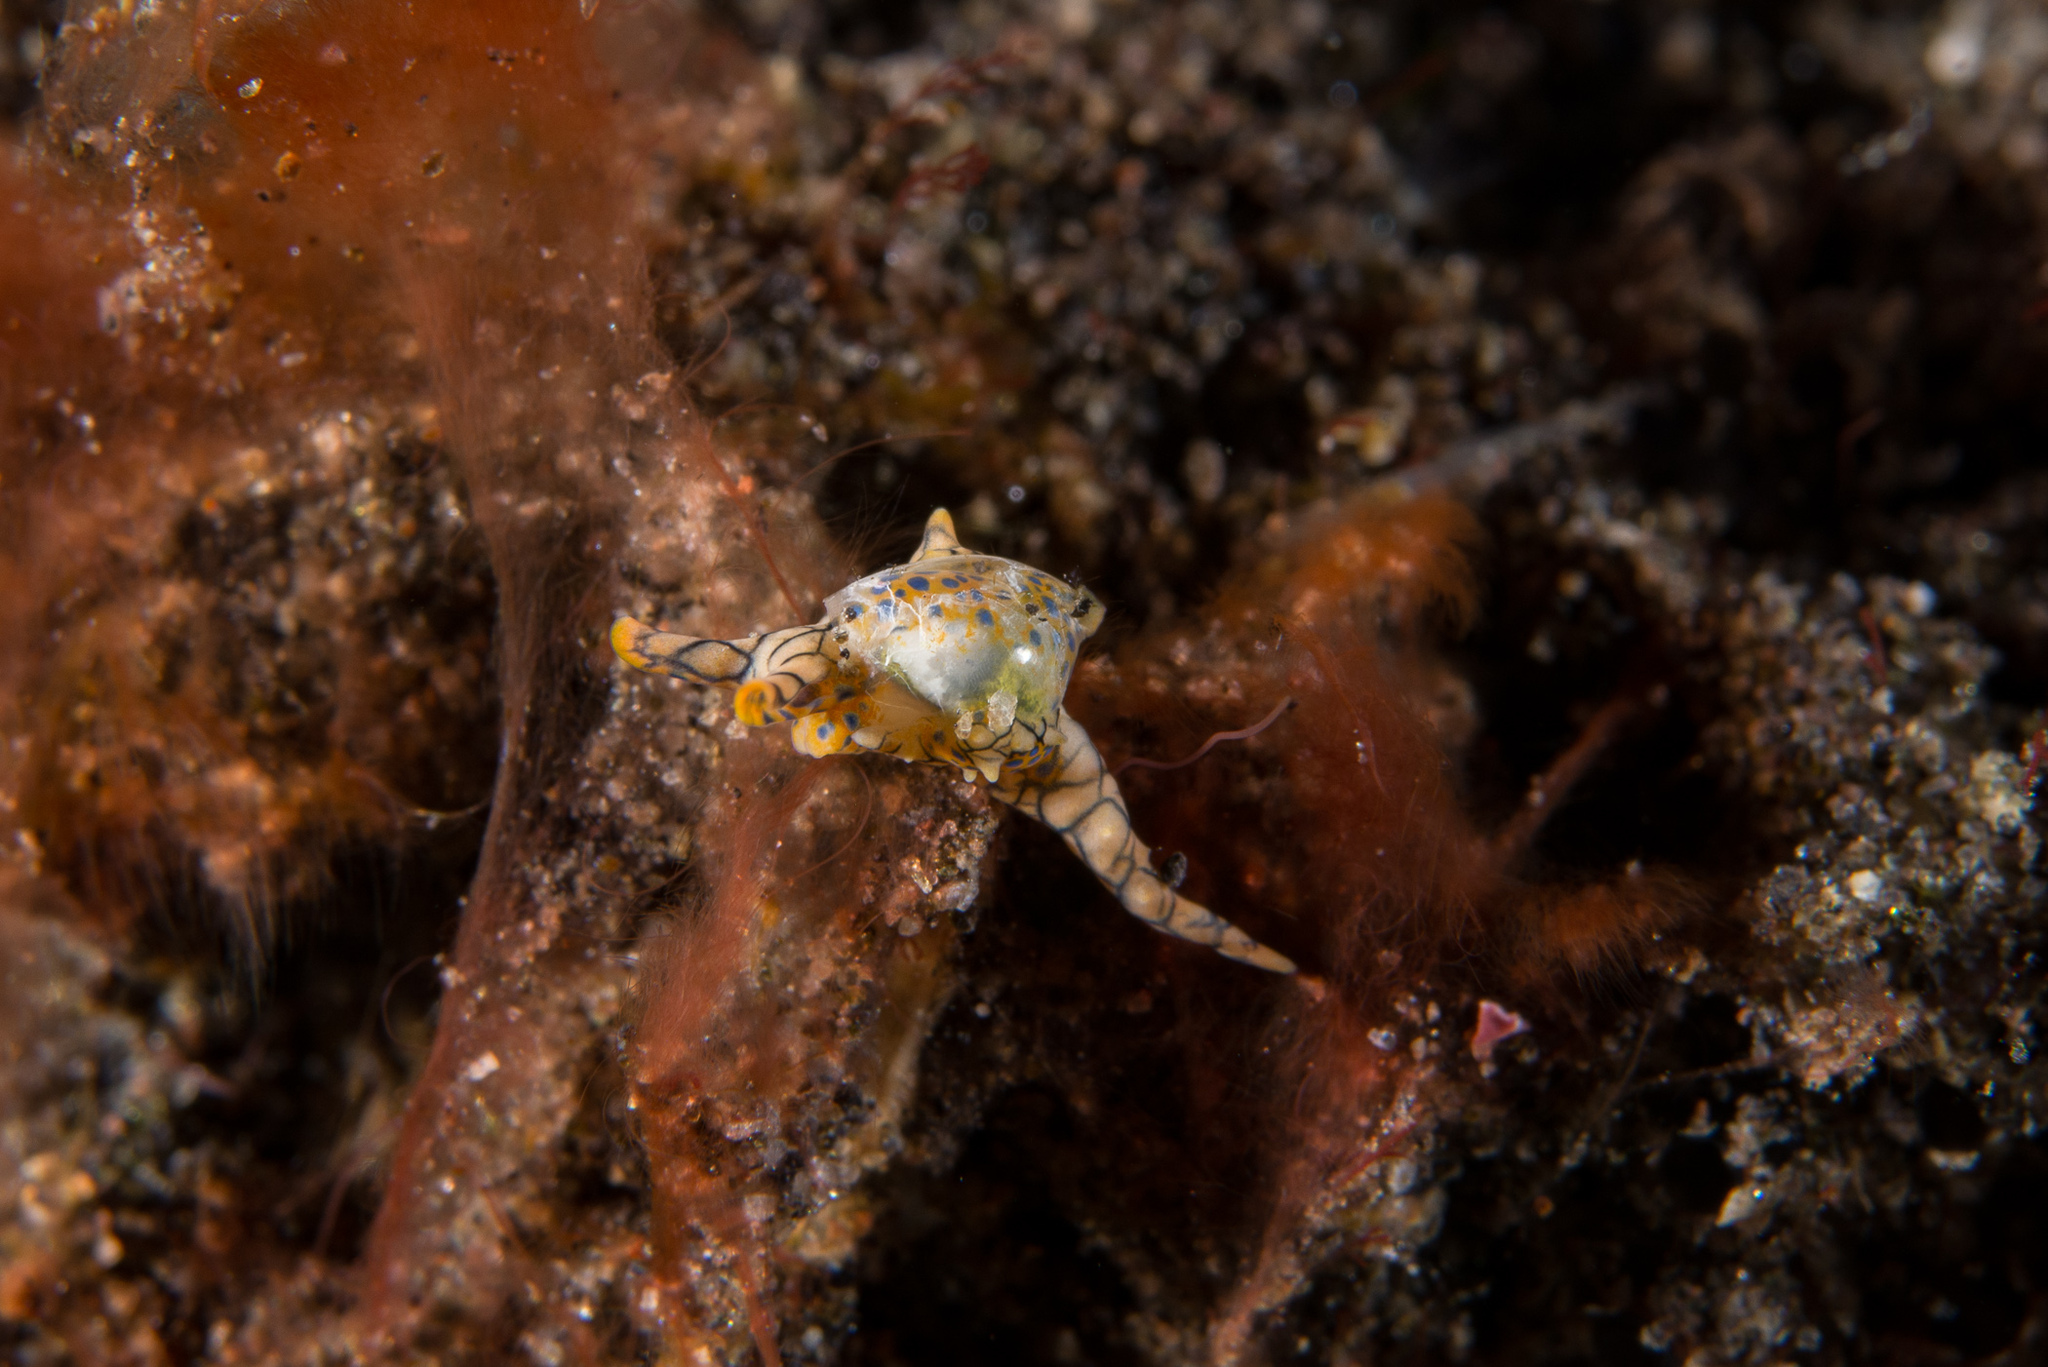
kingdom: Animalia
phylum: Mollusca
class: Gastropoda
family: Oxynoidae
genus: Oxynoe
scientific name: Oxynoe kylei
